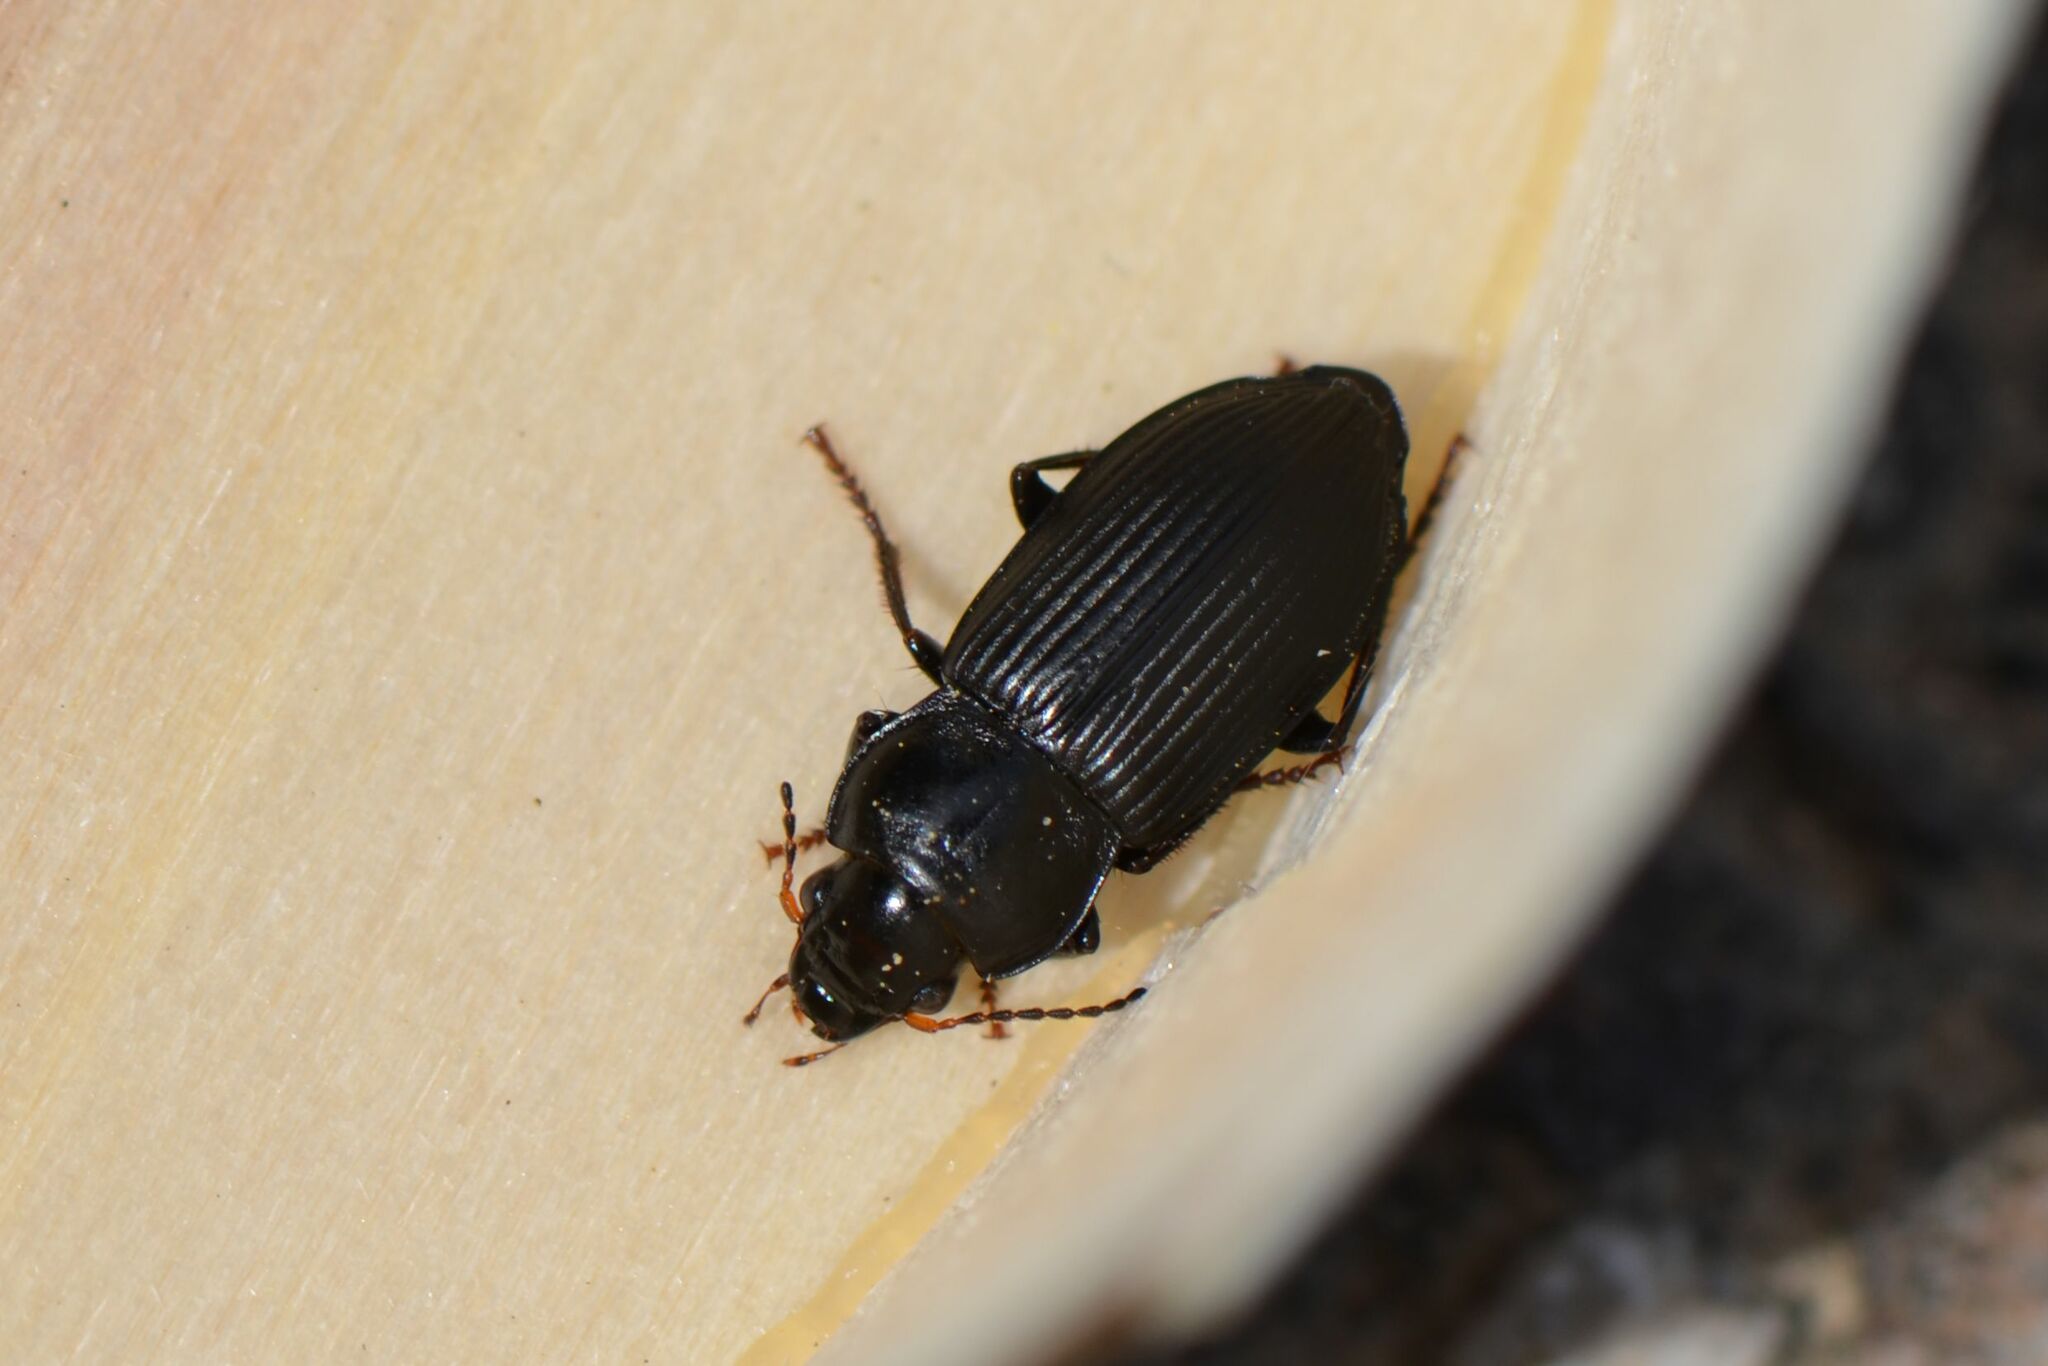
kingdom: Animalia
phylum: Arthropoda
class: Insecta
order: Coleoptera
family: Carabidae
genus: Anisodactylus
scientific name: Anisodactylus binotatus
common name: Two-marked harp ground beetle
